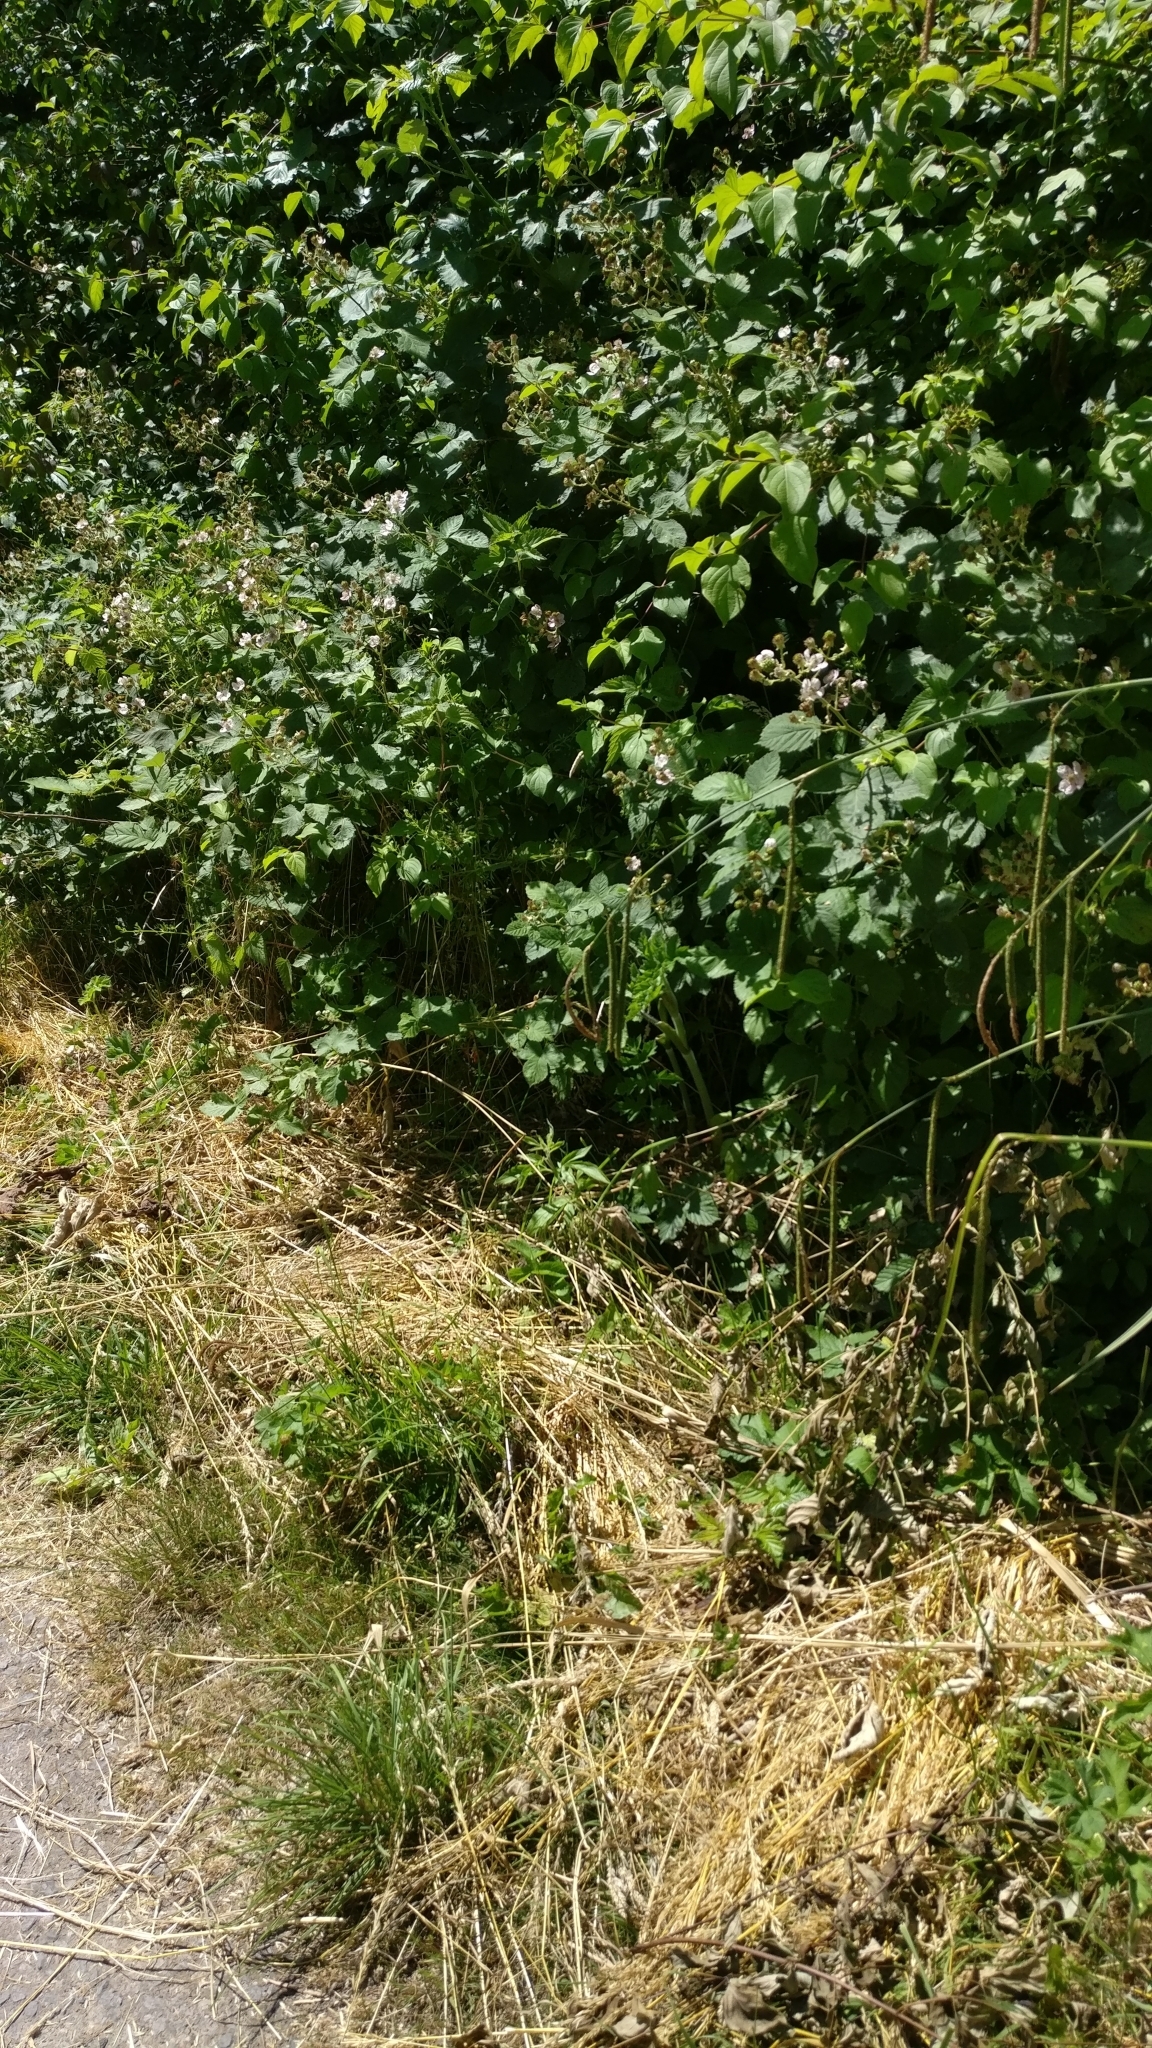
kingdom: Plantae
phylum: Tracheophyta
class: Magnoliopsida
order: Rosales
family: Rosaceae
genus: Rubus
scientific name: Rubus
